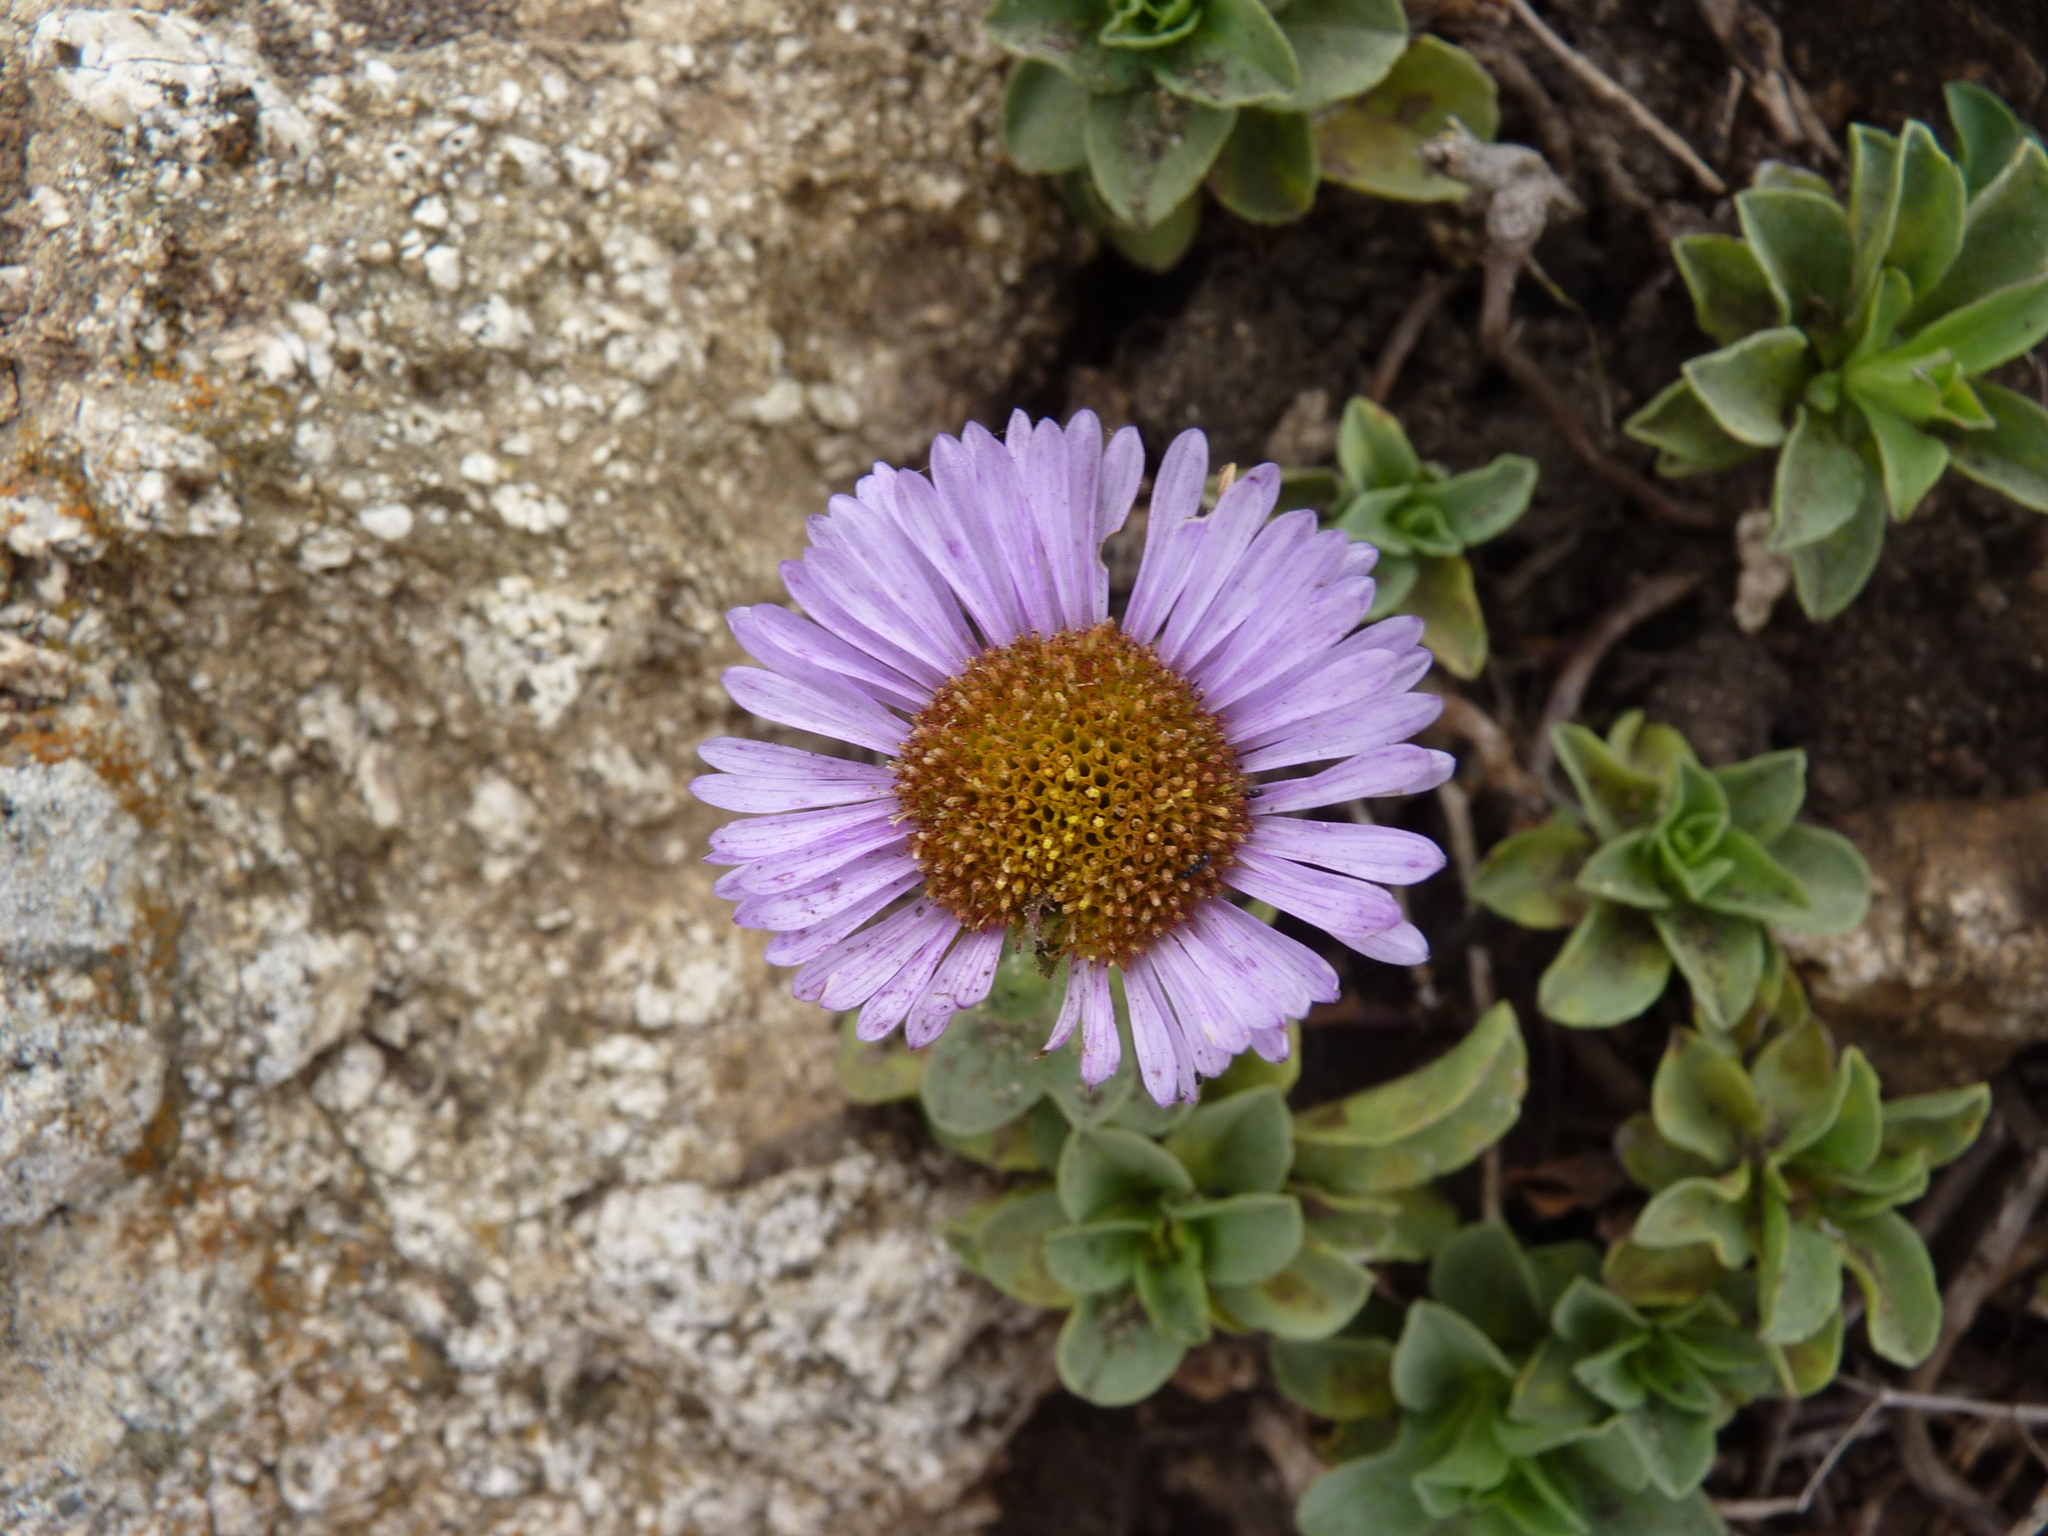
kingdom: Plantae
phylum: Tracheophyta
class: Magnoliopsida
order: Asterales
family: Asteraceae
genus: Erigeron
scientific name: Erigeron glaucus
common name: Seaside daisy
